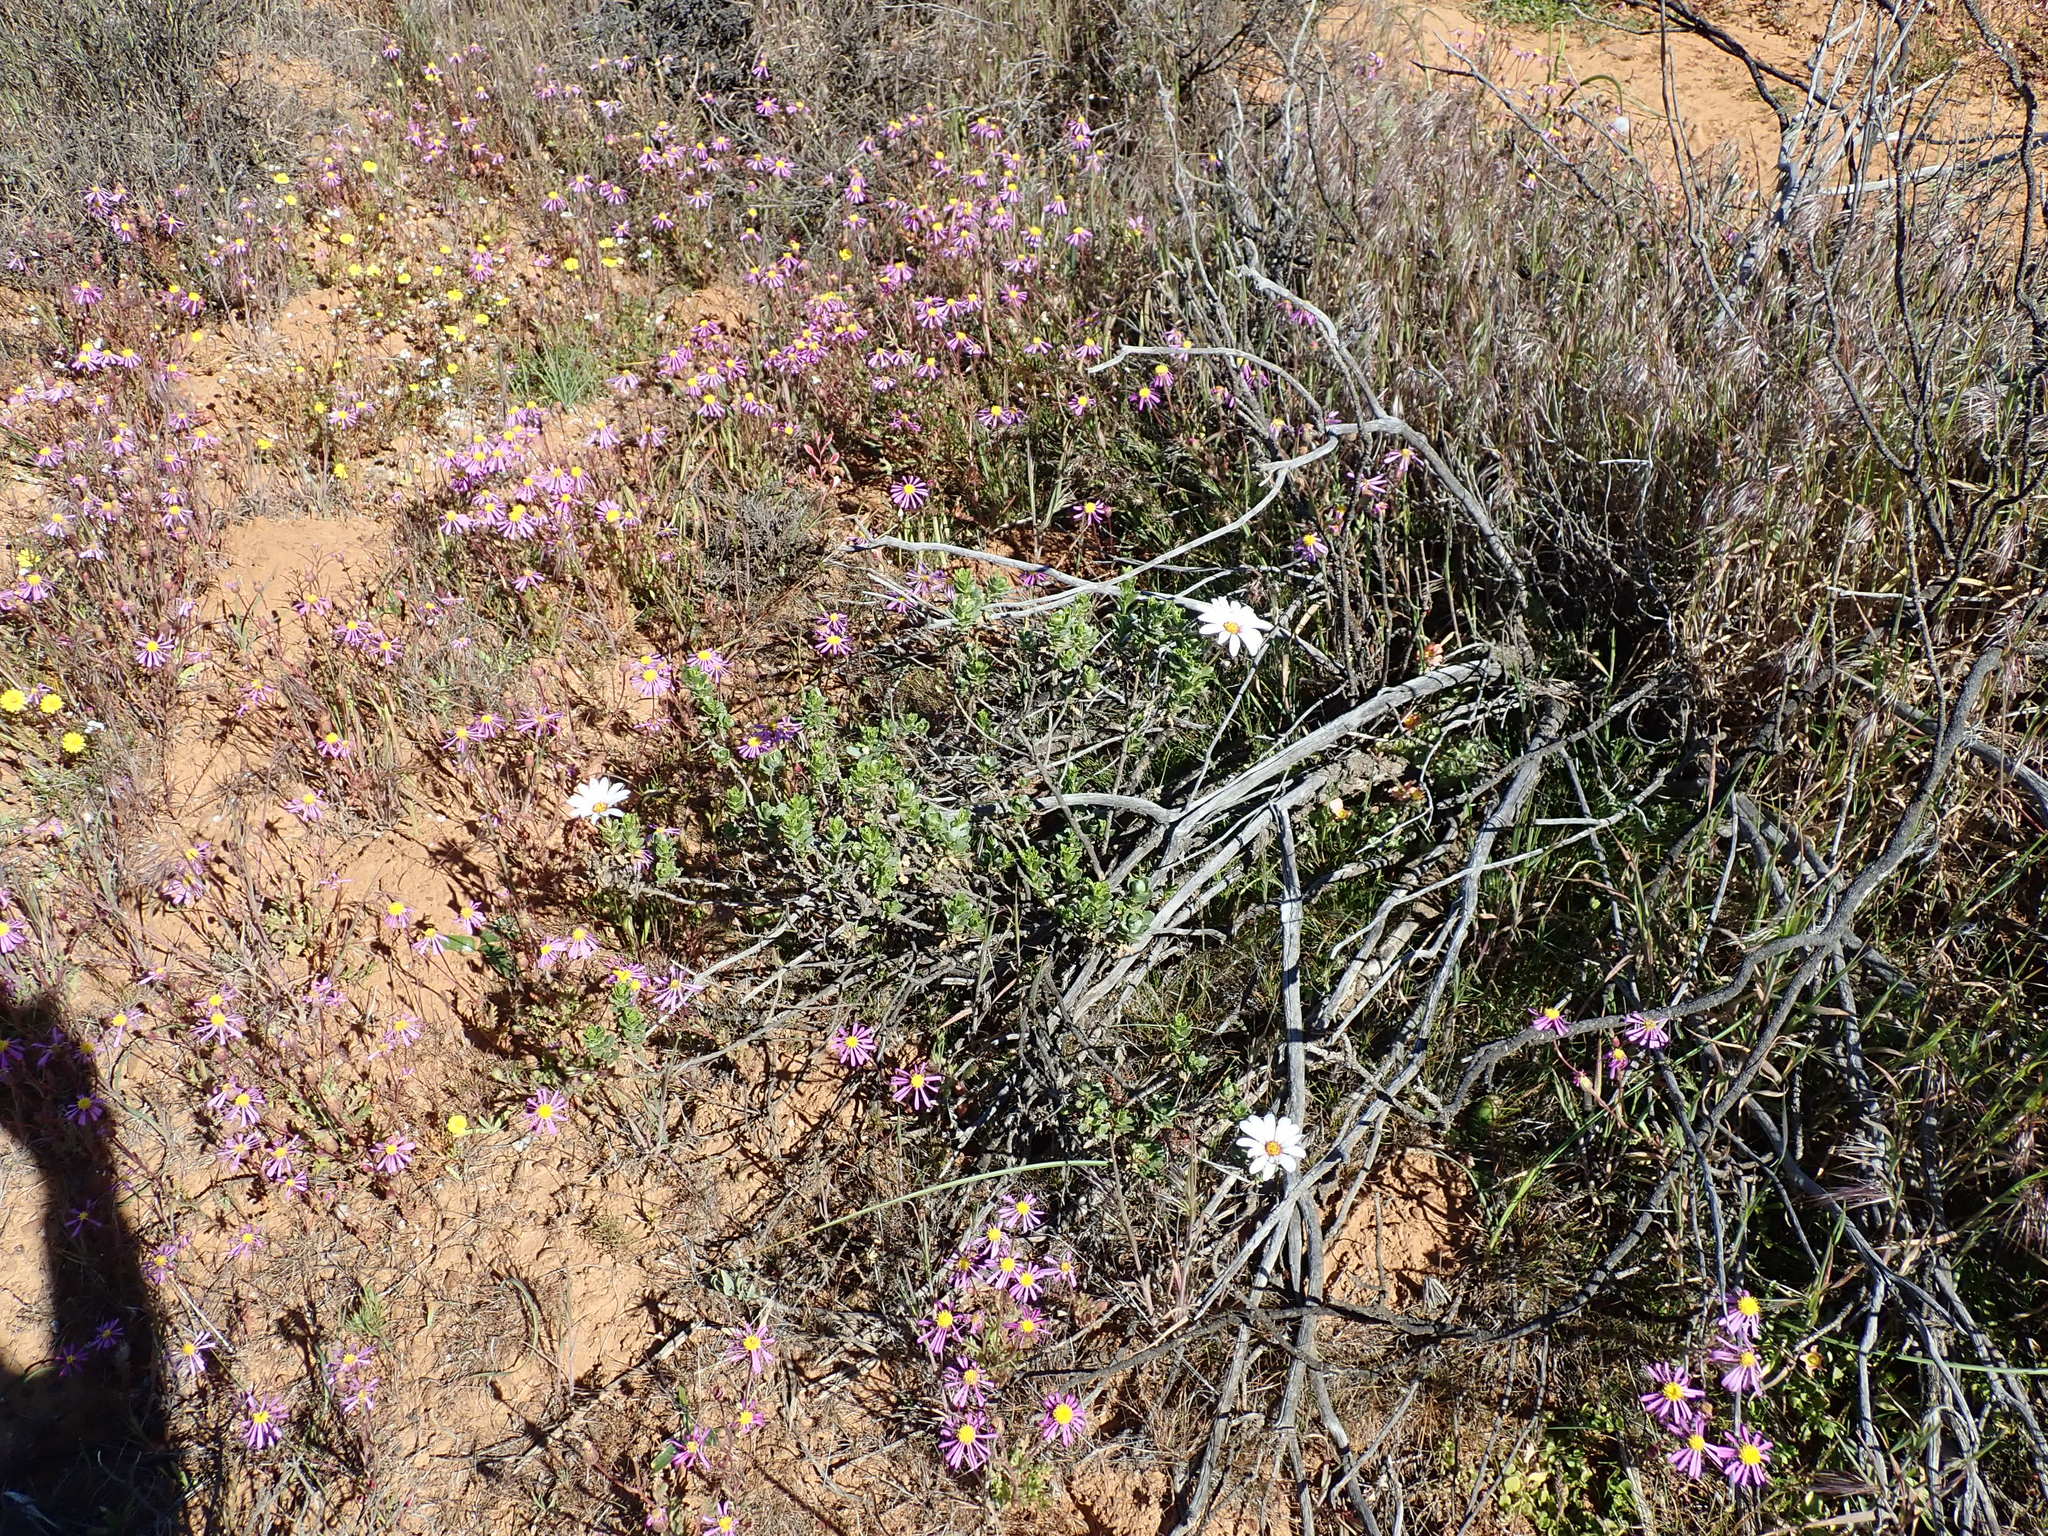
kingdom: Plantae
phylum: Tracheophyta
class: Magnoliopsida
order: Asterales
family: Asteraceae
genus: Dimorphotheca
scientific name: Dimorphotheca cuneata
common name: Daisy
